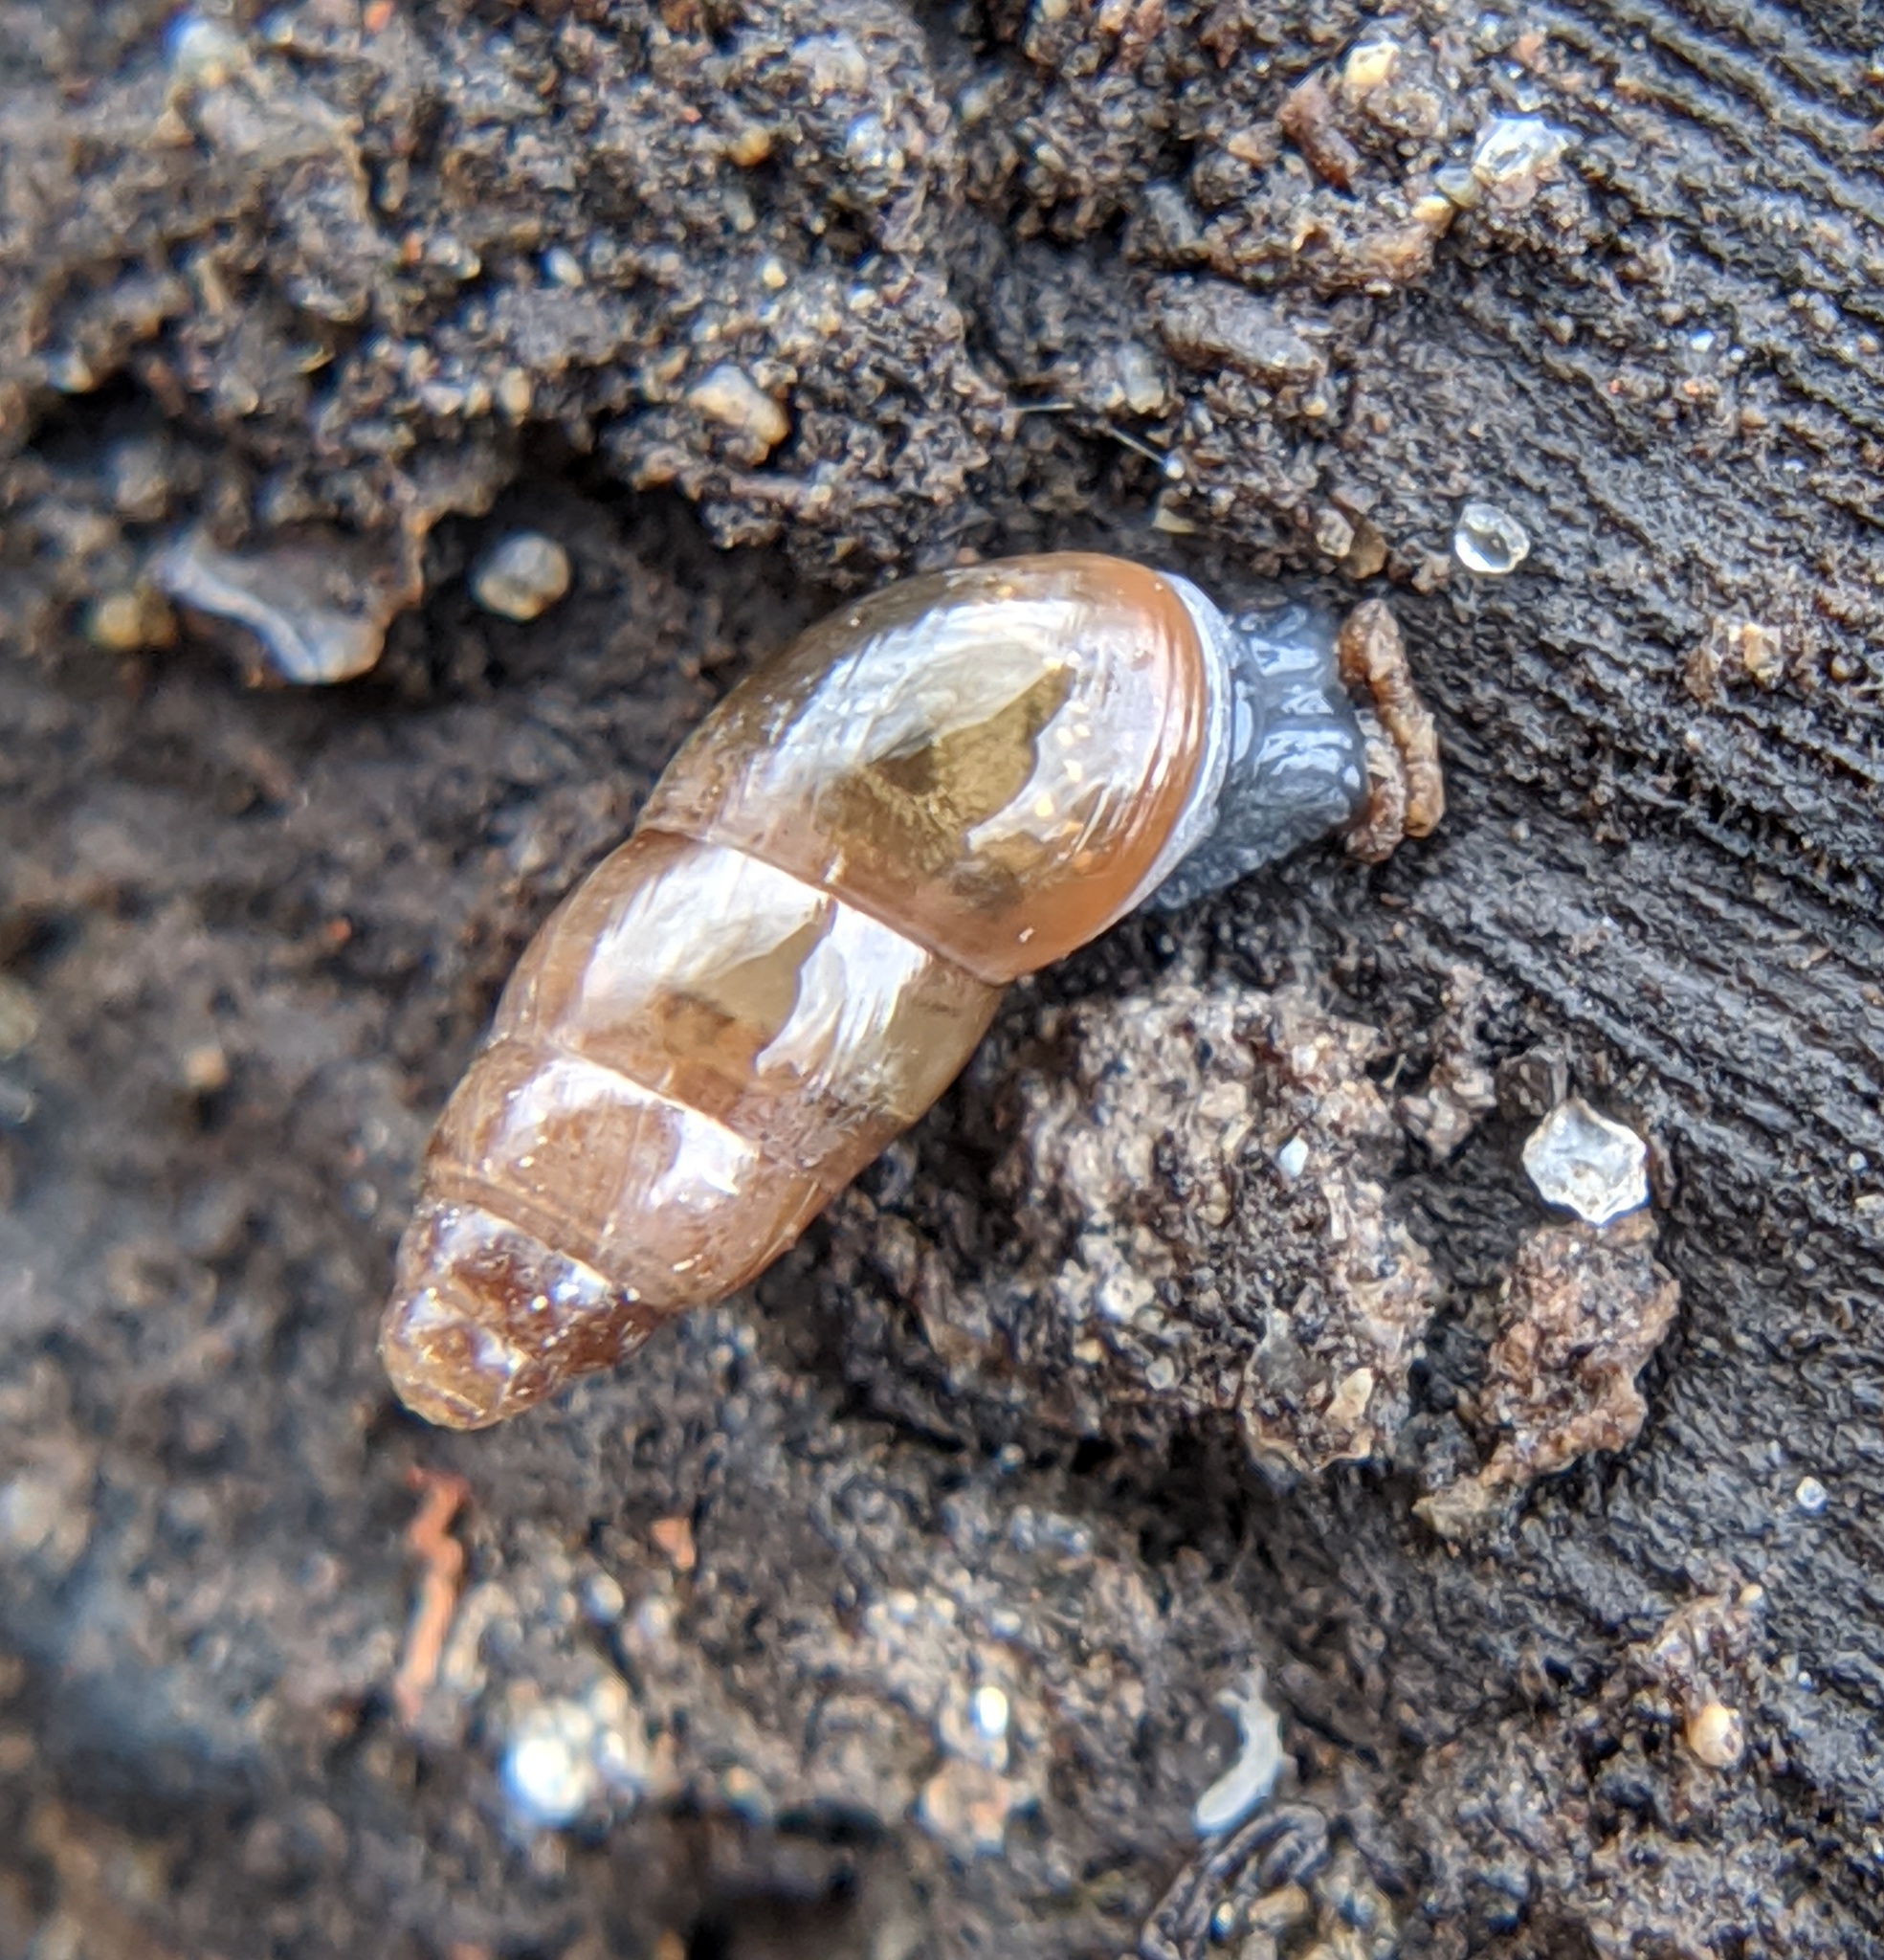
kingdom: Animalia
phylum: Mollusca
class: Gastropoda
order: Stylommatophora
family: Cochlicopidae
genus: Cochlicopa
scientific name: Cochlicopa lubrica
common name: Glossy pillar snail
